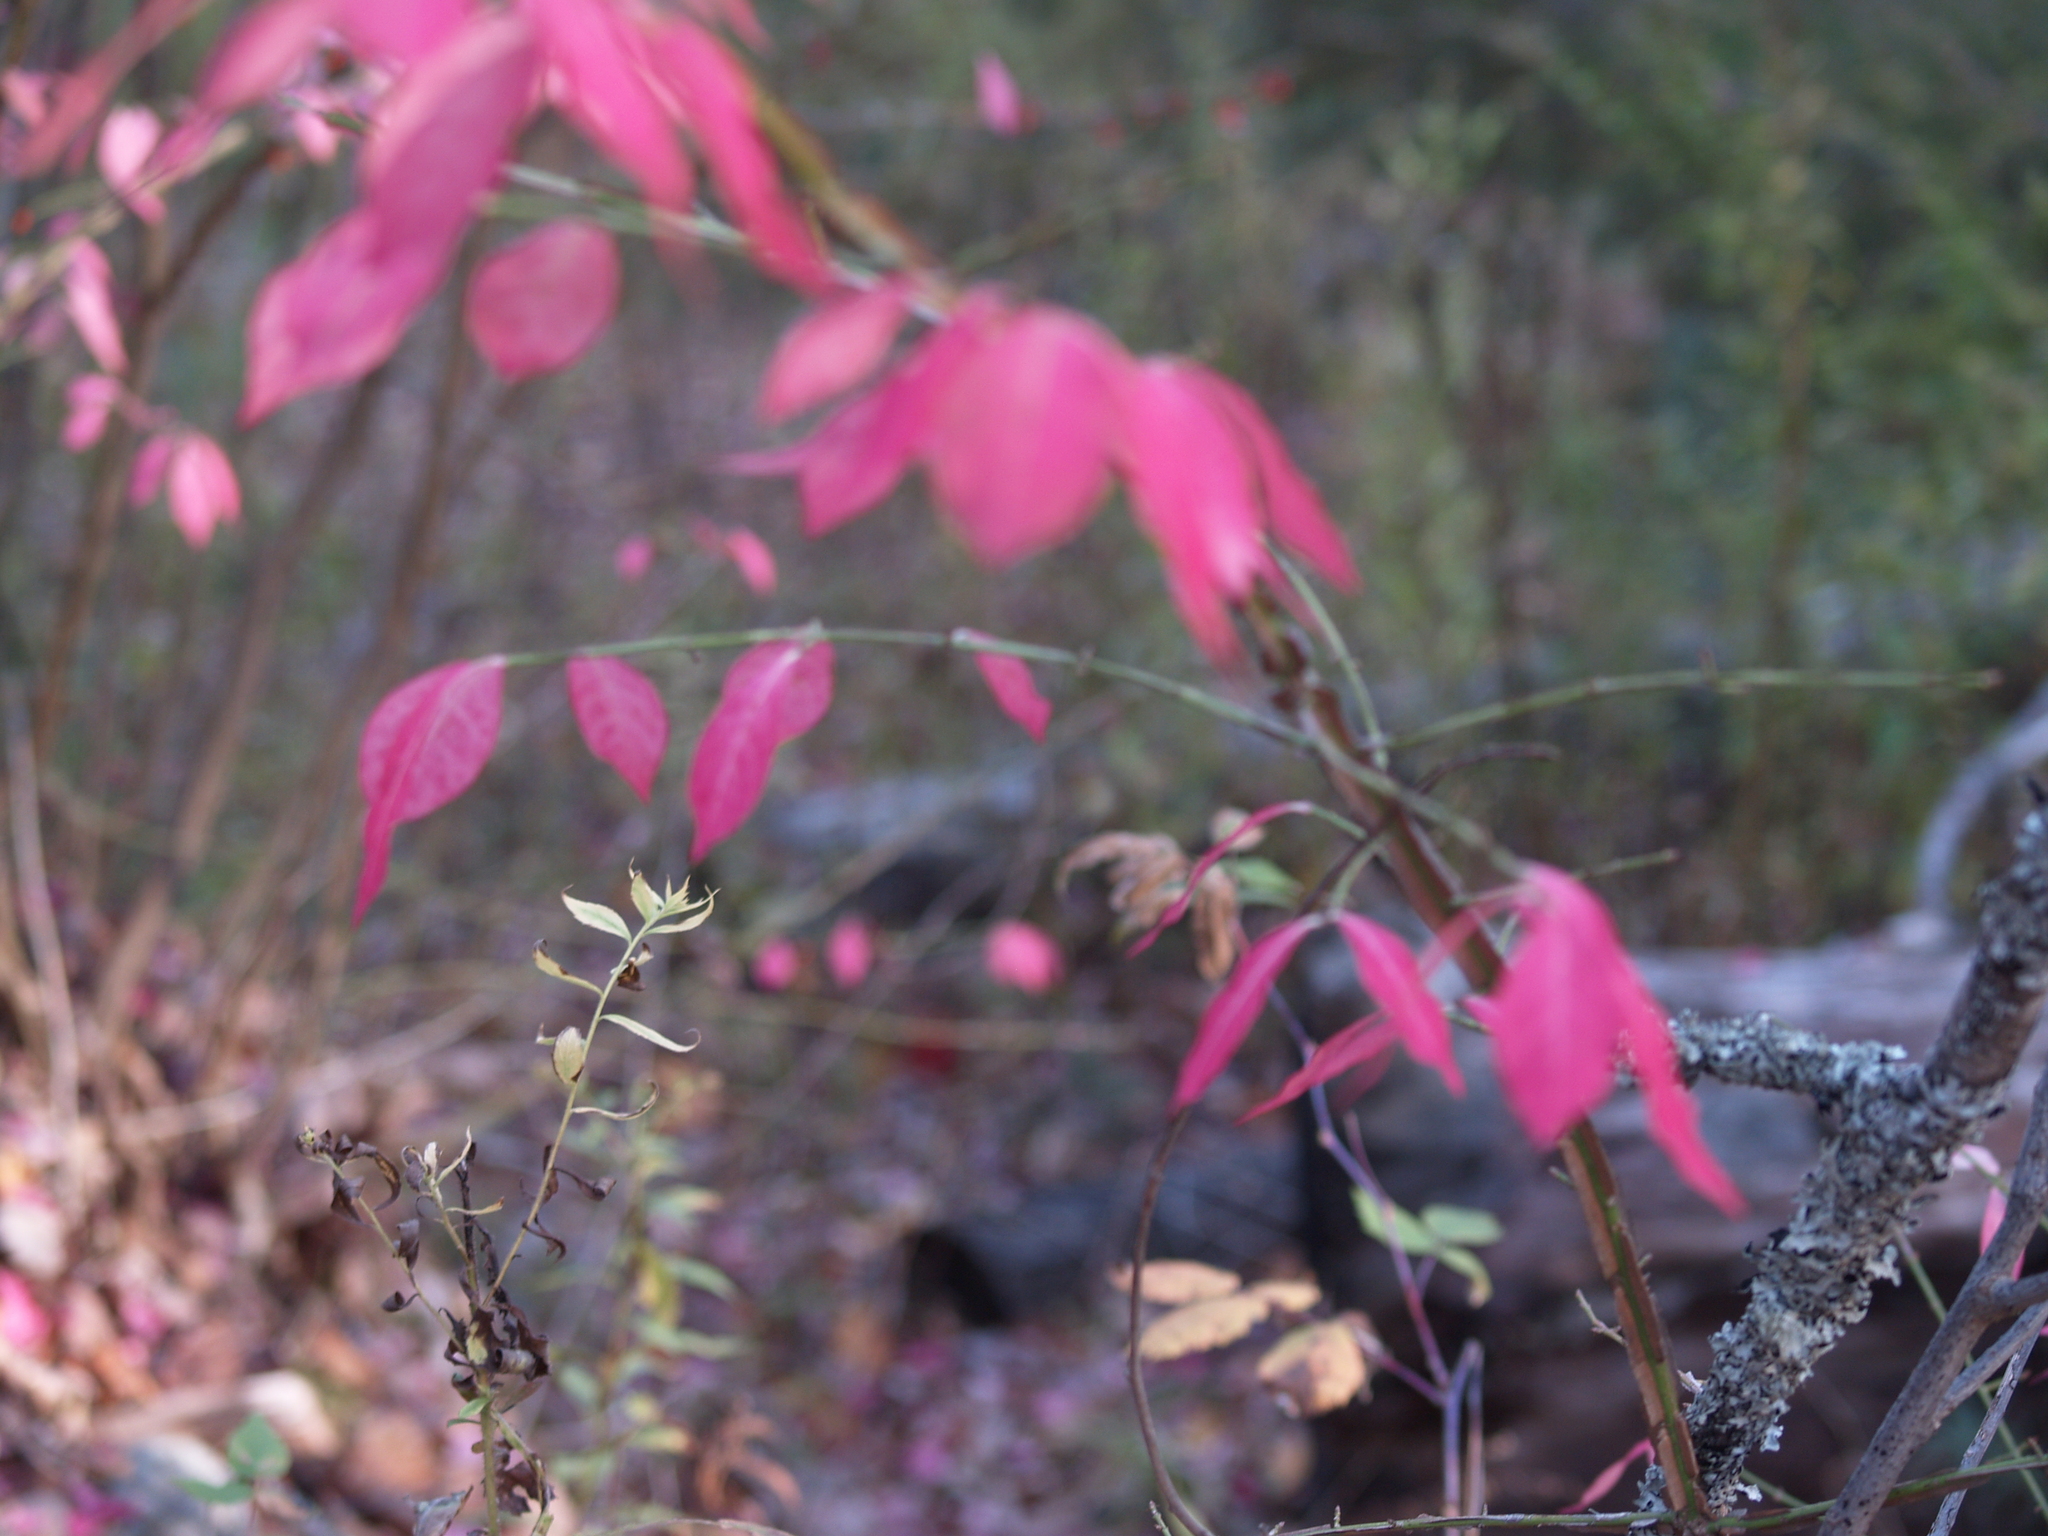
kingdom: Plantae
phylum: Tracheophyta
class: Magnoliopsida
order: Celastrales
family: Celastraceae
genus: Euonymus
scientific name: Euonymus alatus
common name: Winged euonymus
